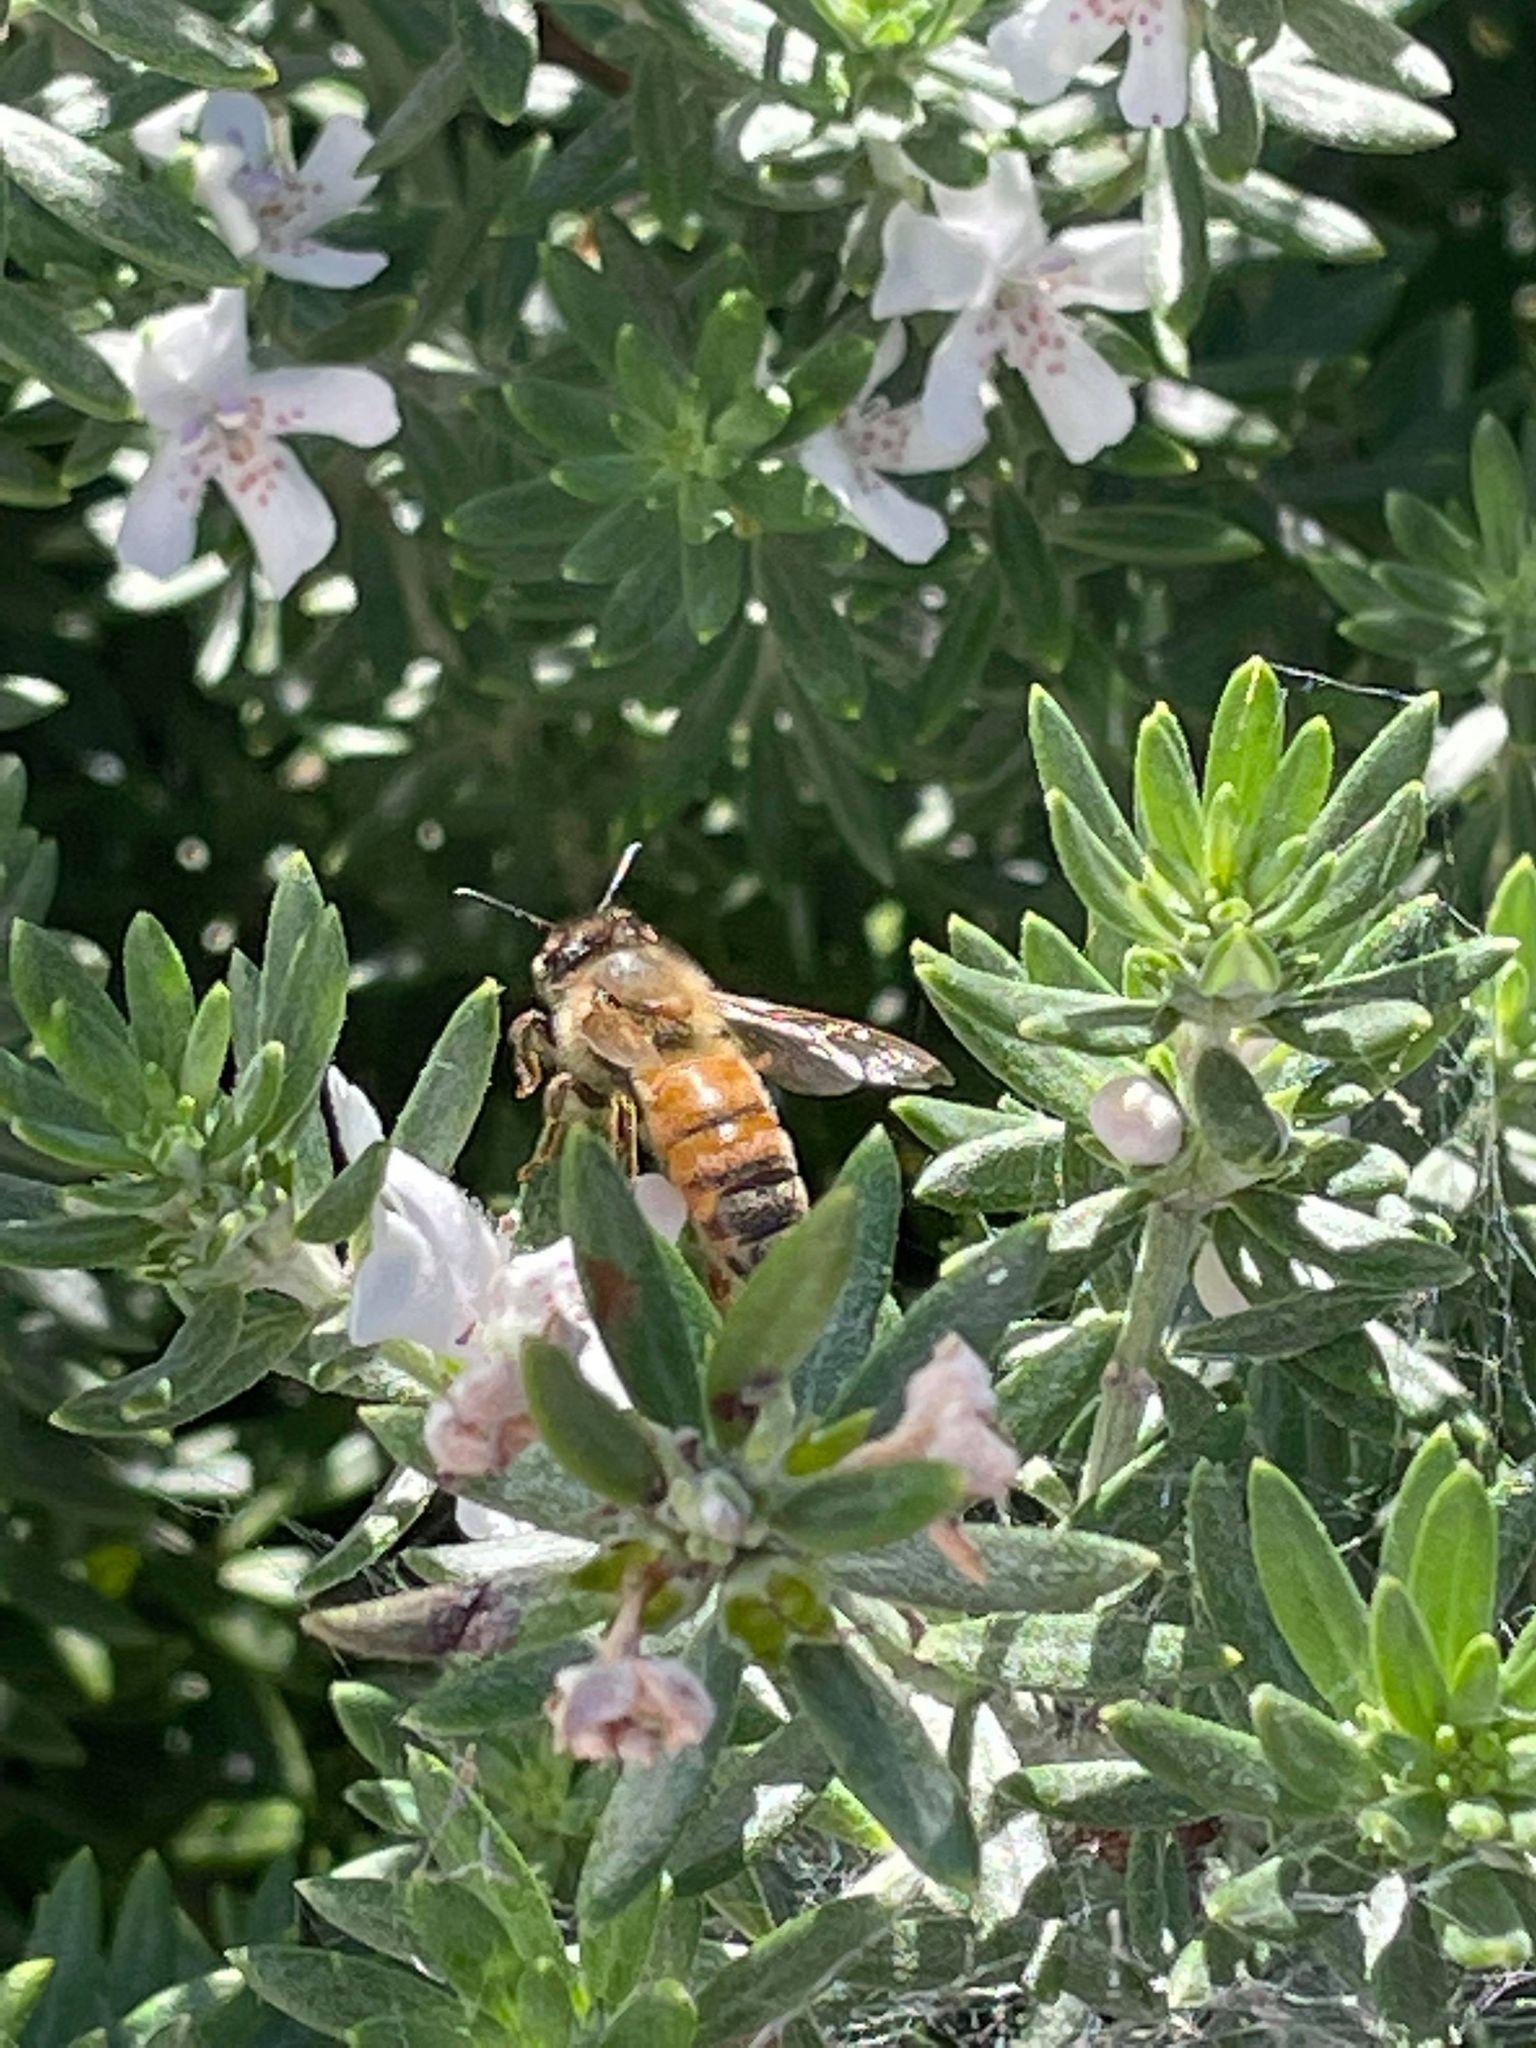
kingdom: Animalia
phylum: Arthropoda
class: Insecta
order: Hymenoptera
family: Apidae
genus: Apis
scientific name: Apis mellifera
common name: Honey bee
